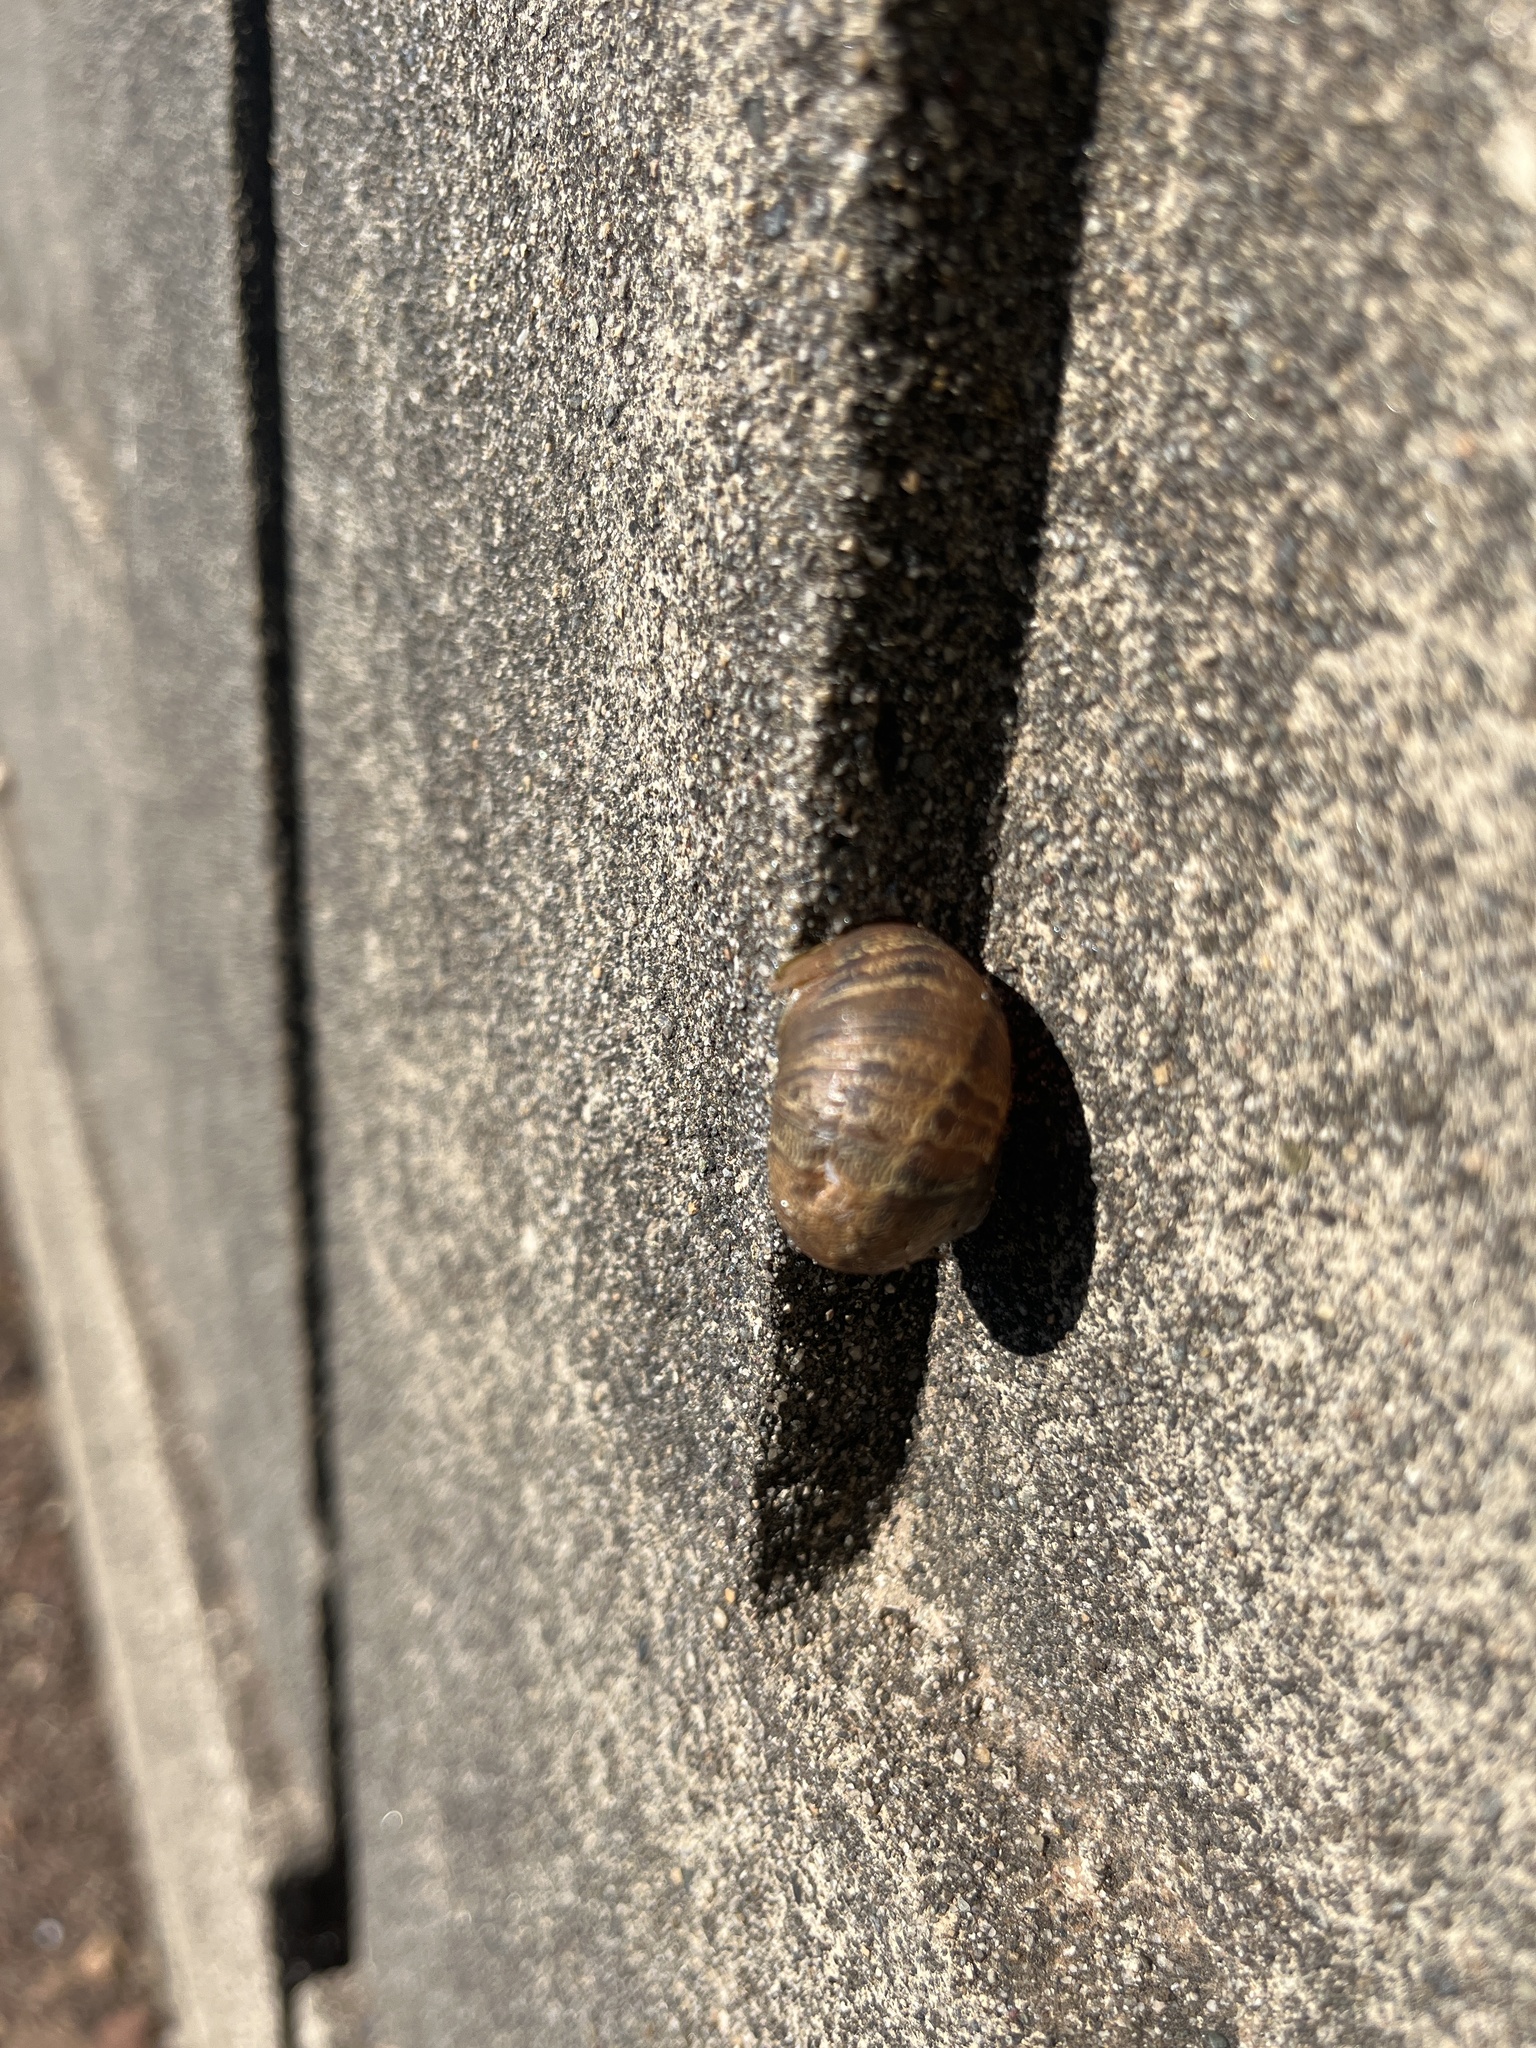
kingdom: Animalia
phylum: Mollusca
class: Gastropoda
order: Stylommatophora
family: Helicidae
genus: Cornu
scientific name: Cornu aspersum
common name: Brown garden snail
